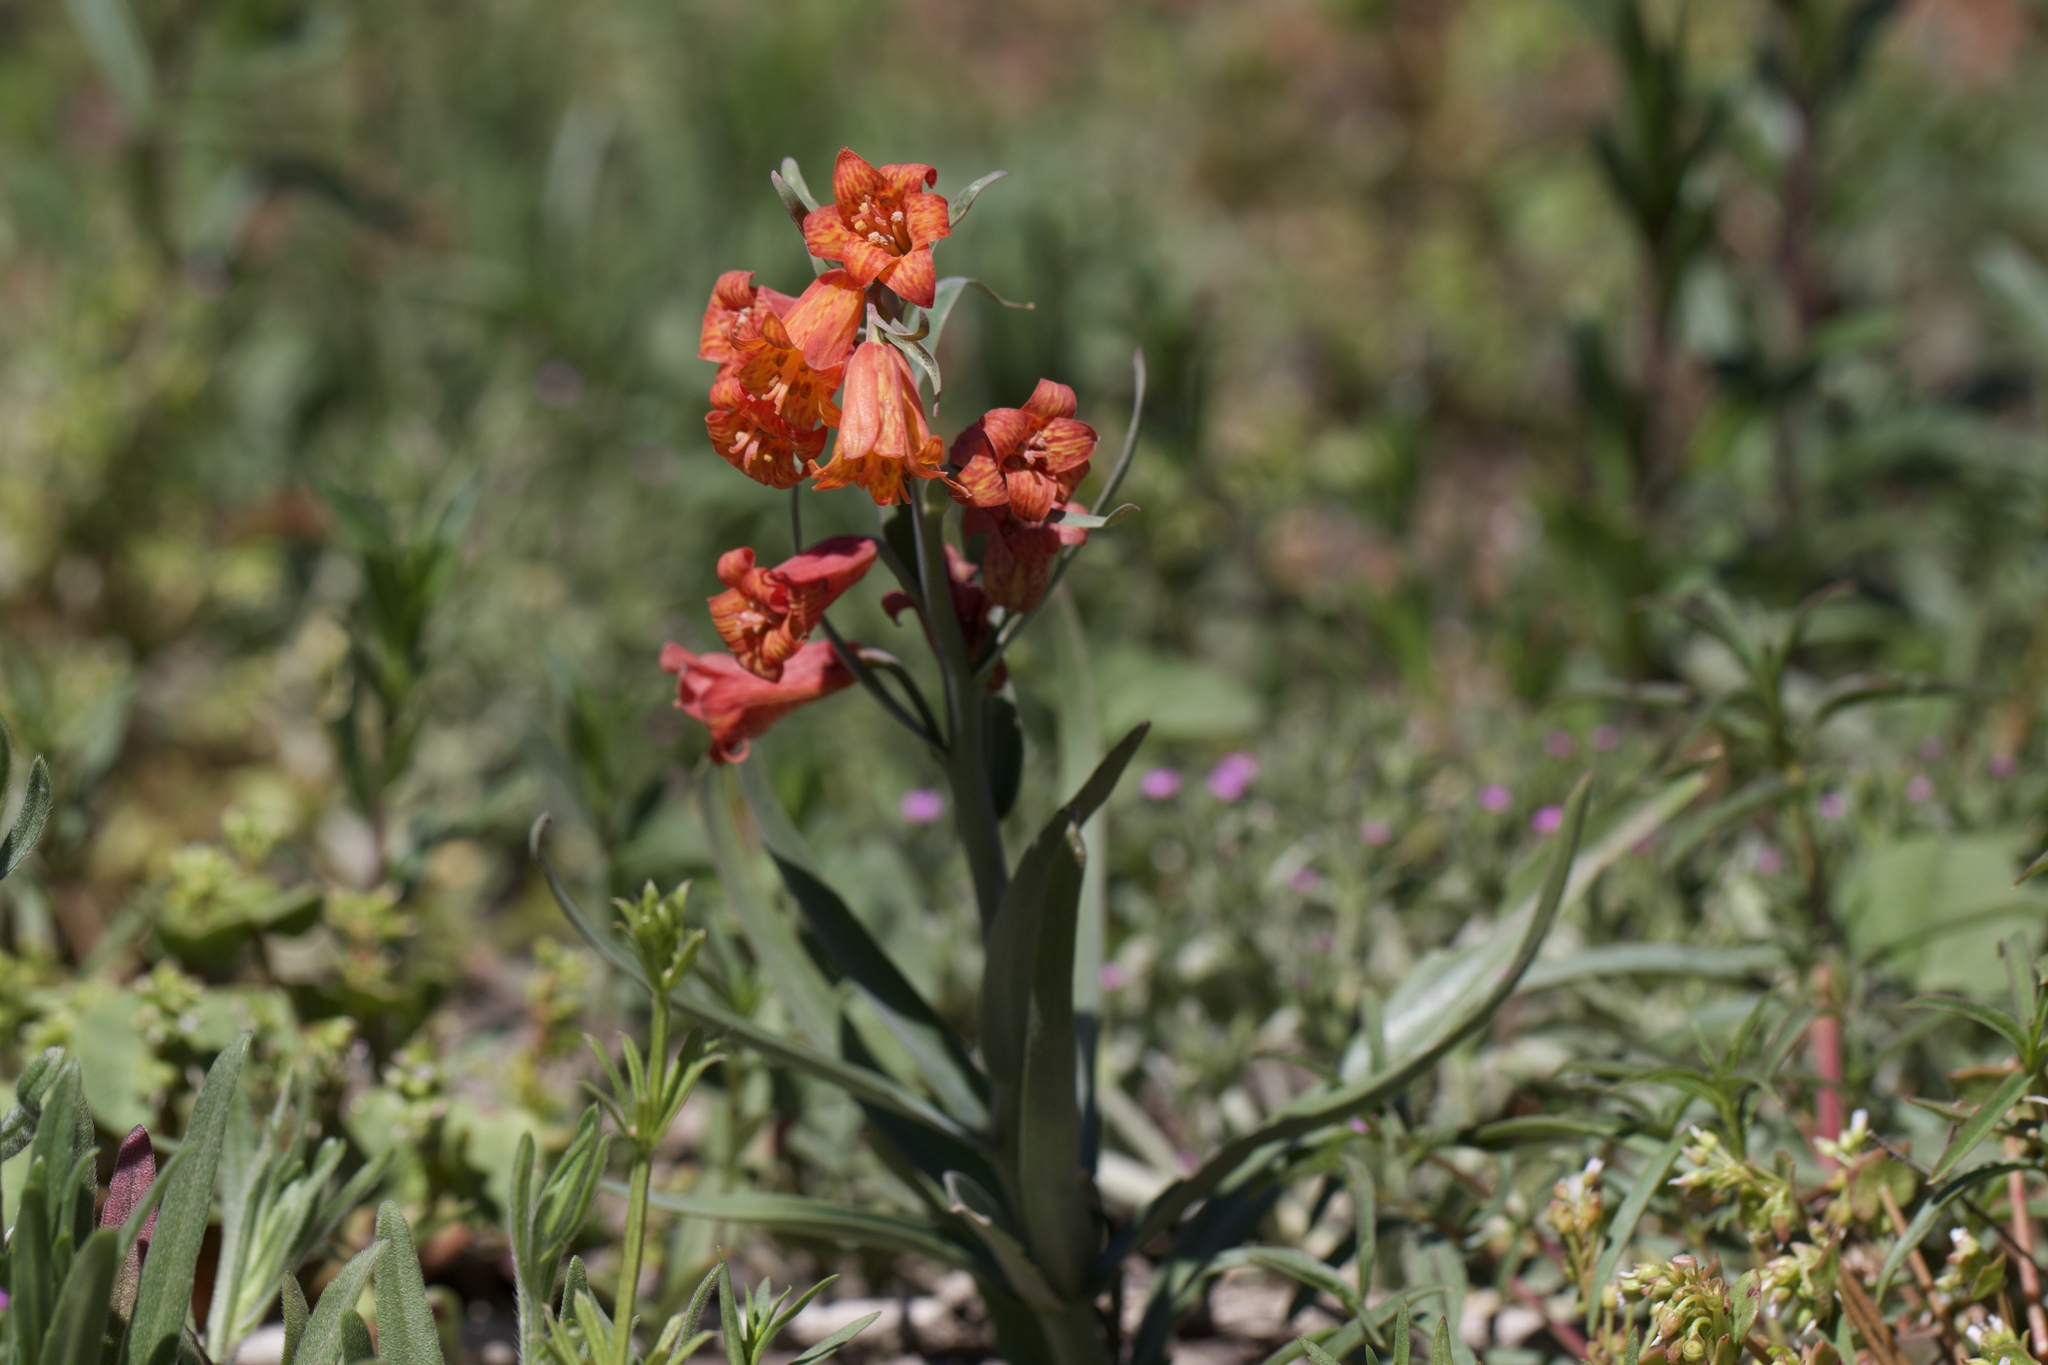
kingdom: Plantae
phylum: Tracheophyta
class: Liliopsida
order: Liliales
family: Liliaceae
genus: Fritillaria
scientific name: Fritillaria recurva
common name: Scarlet fritillary
